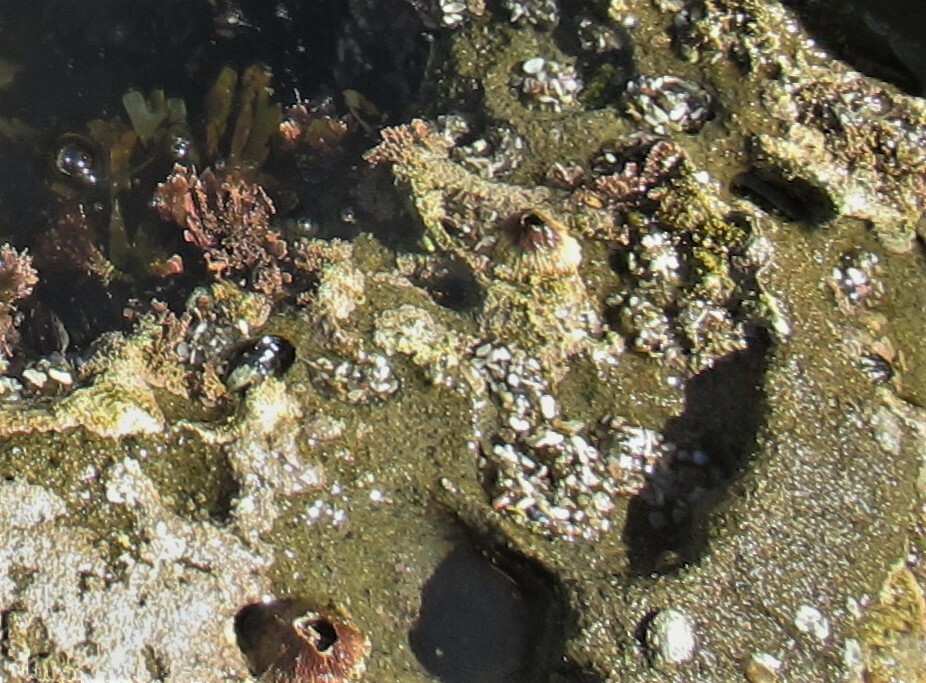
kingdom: Animalia
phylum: Arthropoda
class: Maxillopoda
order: Sessilia
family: Tetraclitidae
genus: Tetraclita
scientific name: Tetraclita rubescens
